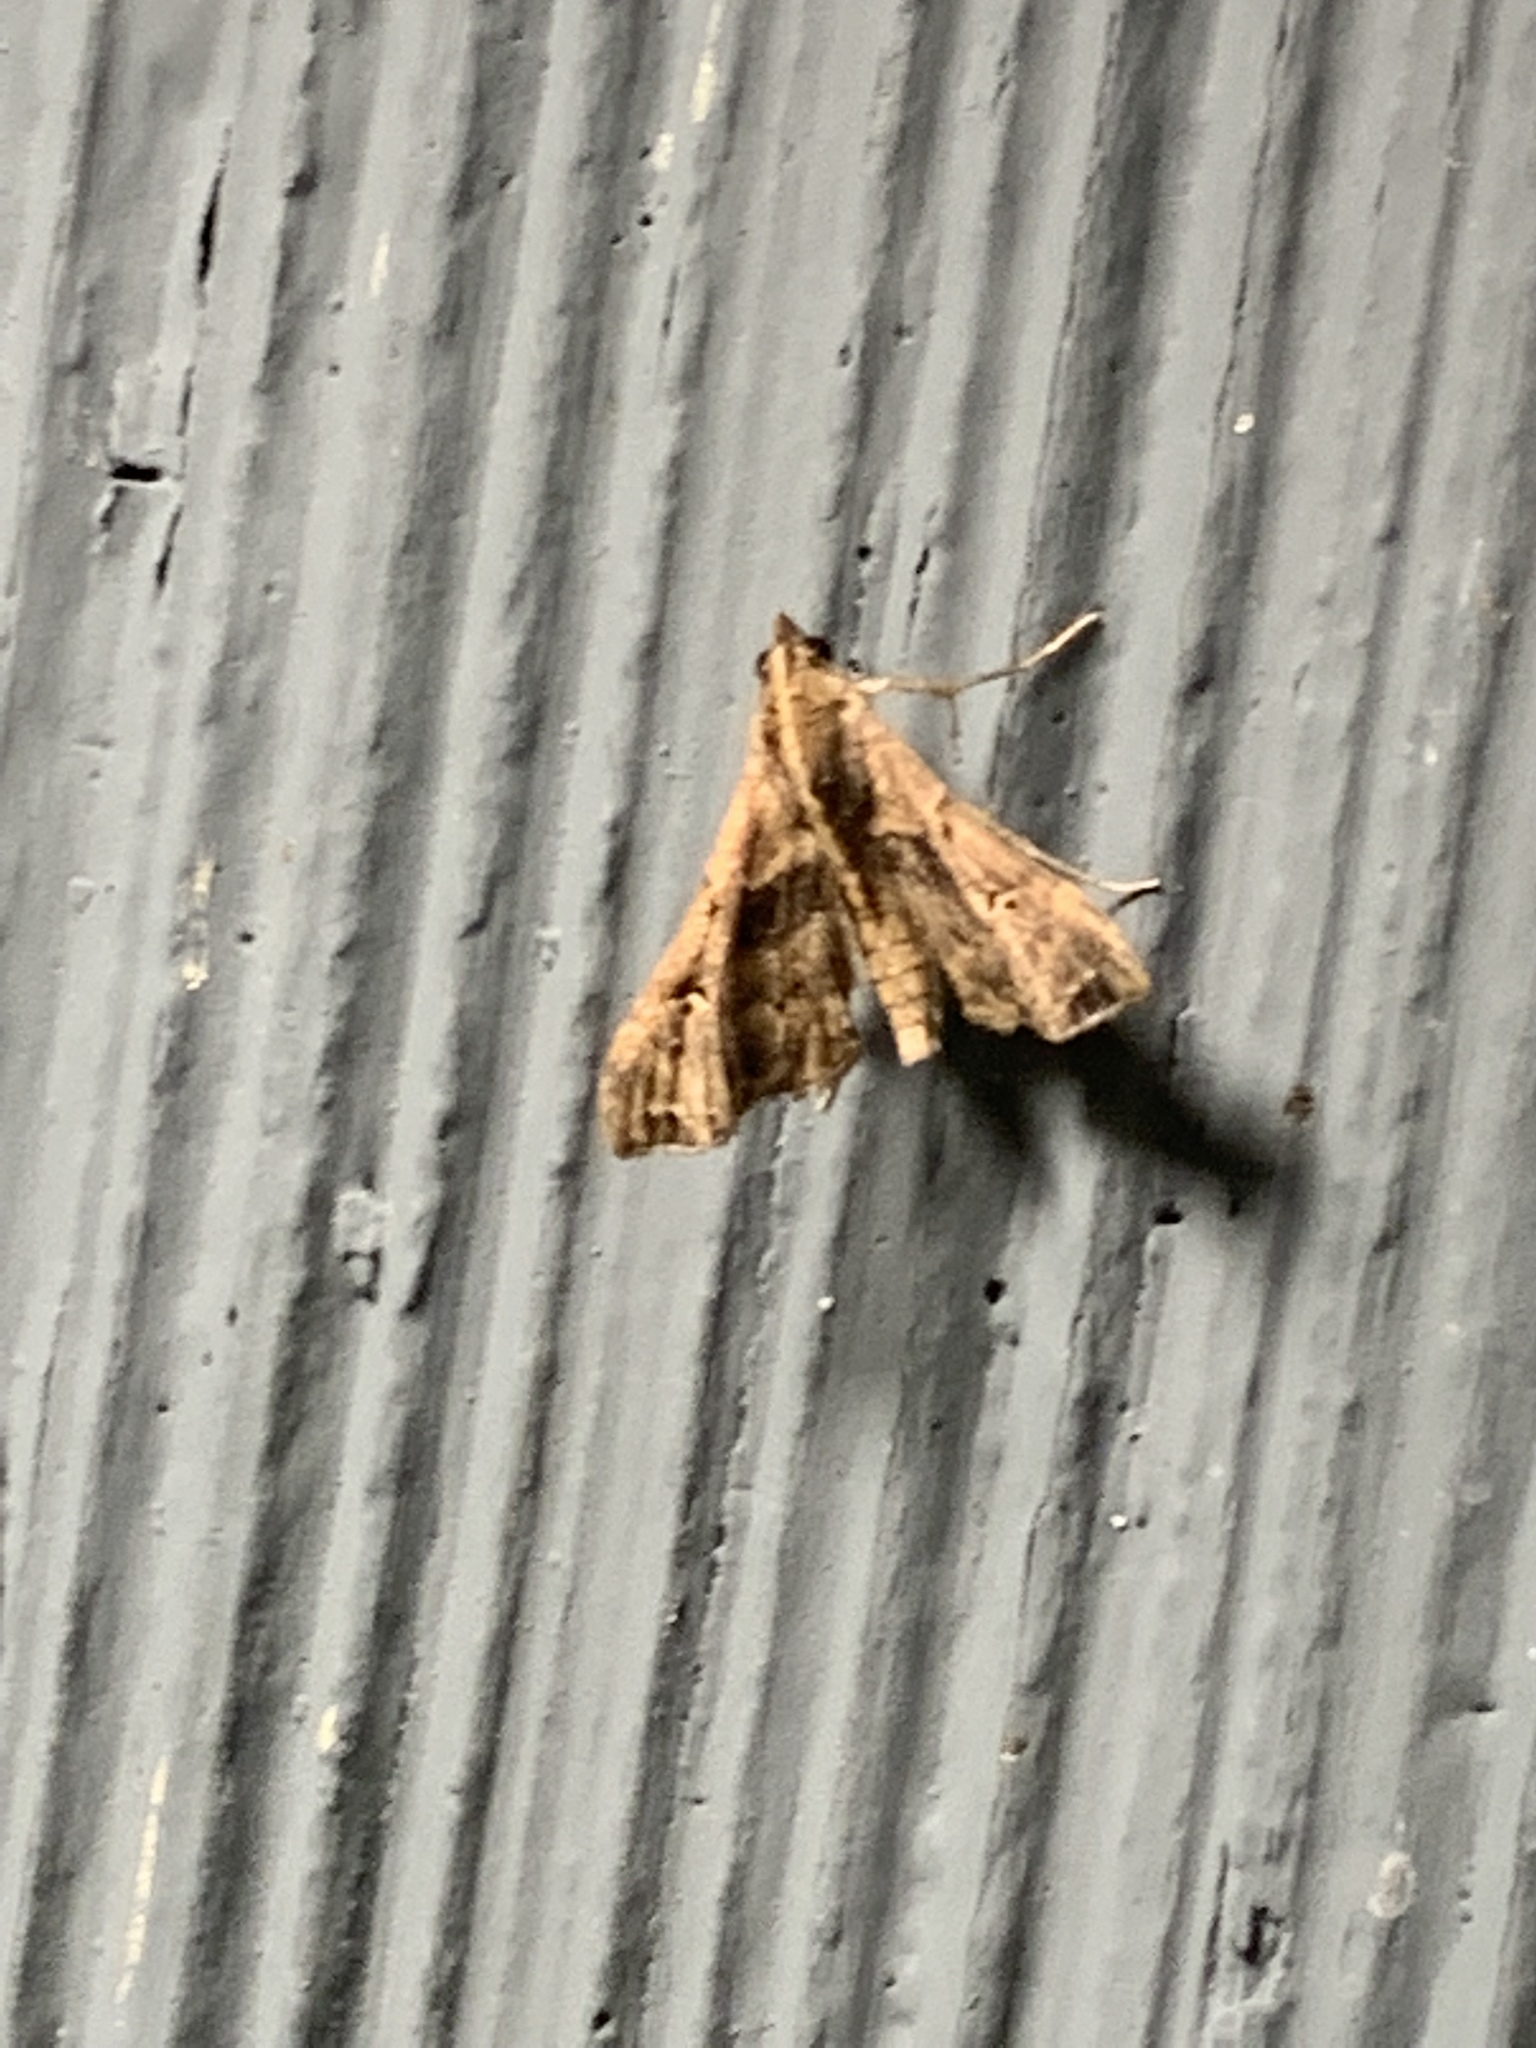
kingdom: Animalia
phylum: Arthropoda
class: Insecta
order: Lepidoptera
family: Erebidae
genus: Palthis
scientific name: Palthis asopialis
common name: Faint-spotted palthis moth
